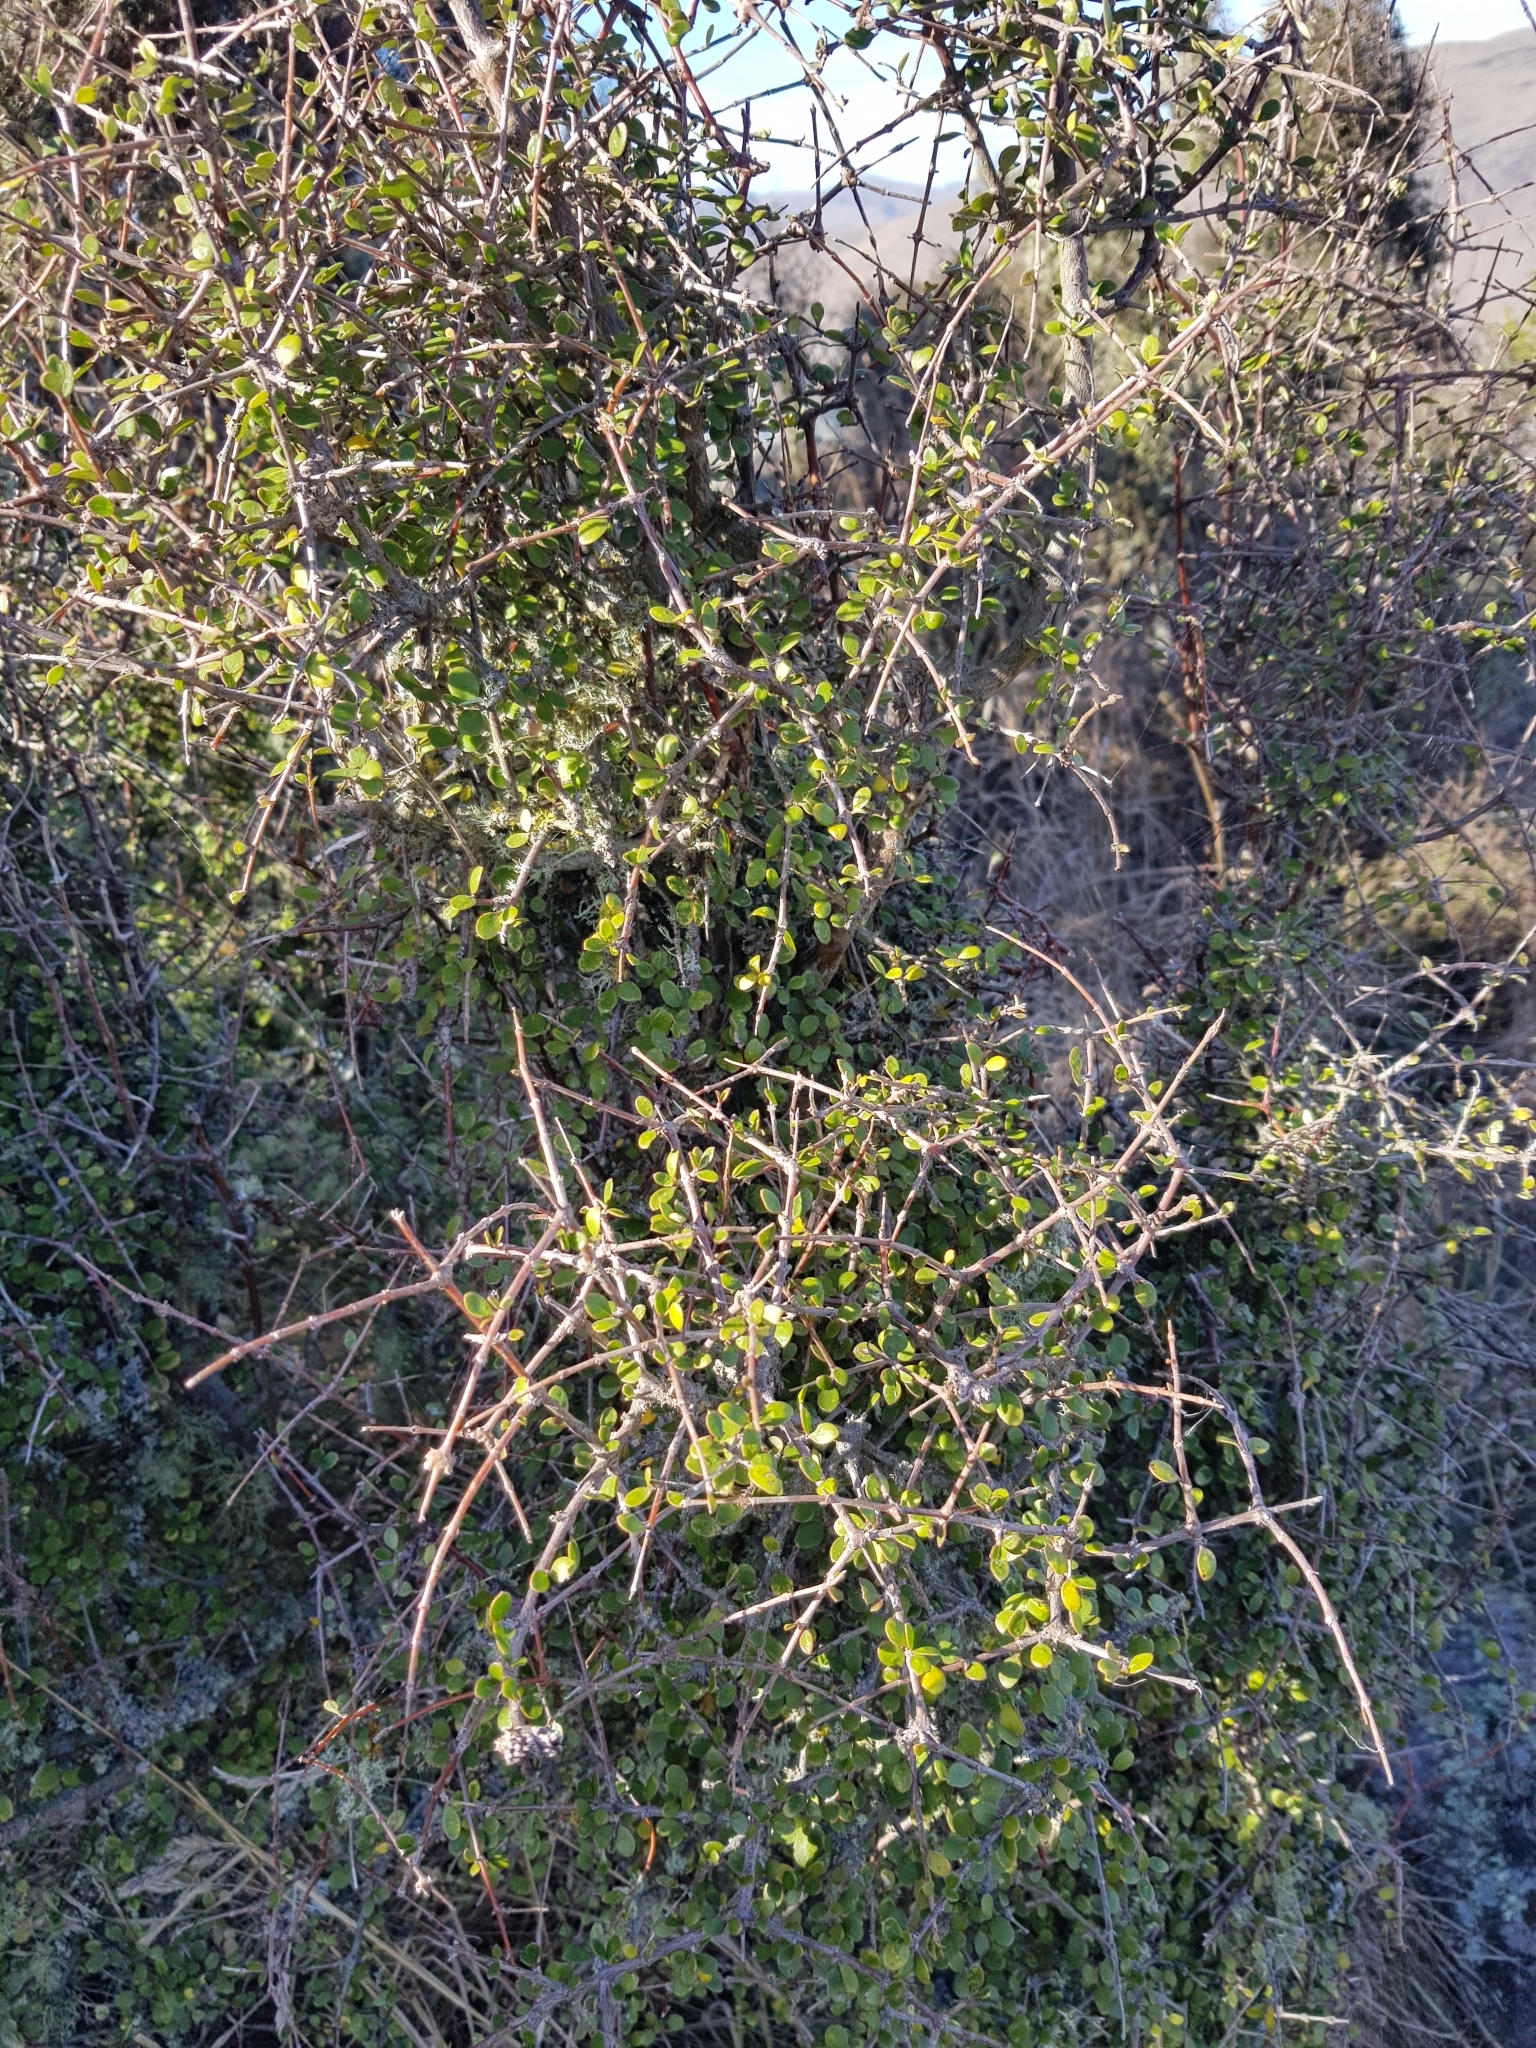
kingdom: Plantae
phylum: Tracheophyta
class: Magnoliopsida
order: Gentianales
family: Rubiaceae
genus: Coprosma
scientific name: Coprosma crassifolia
